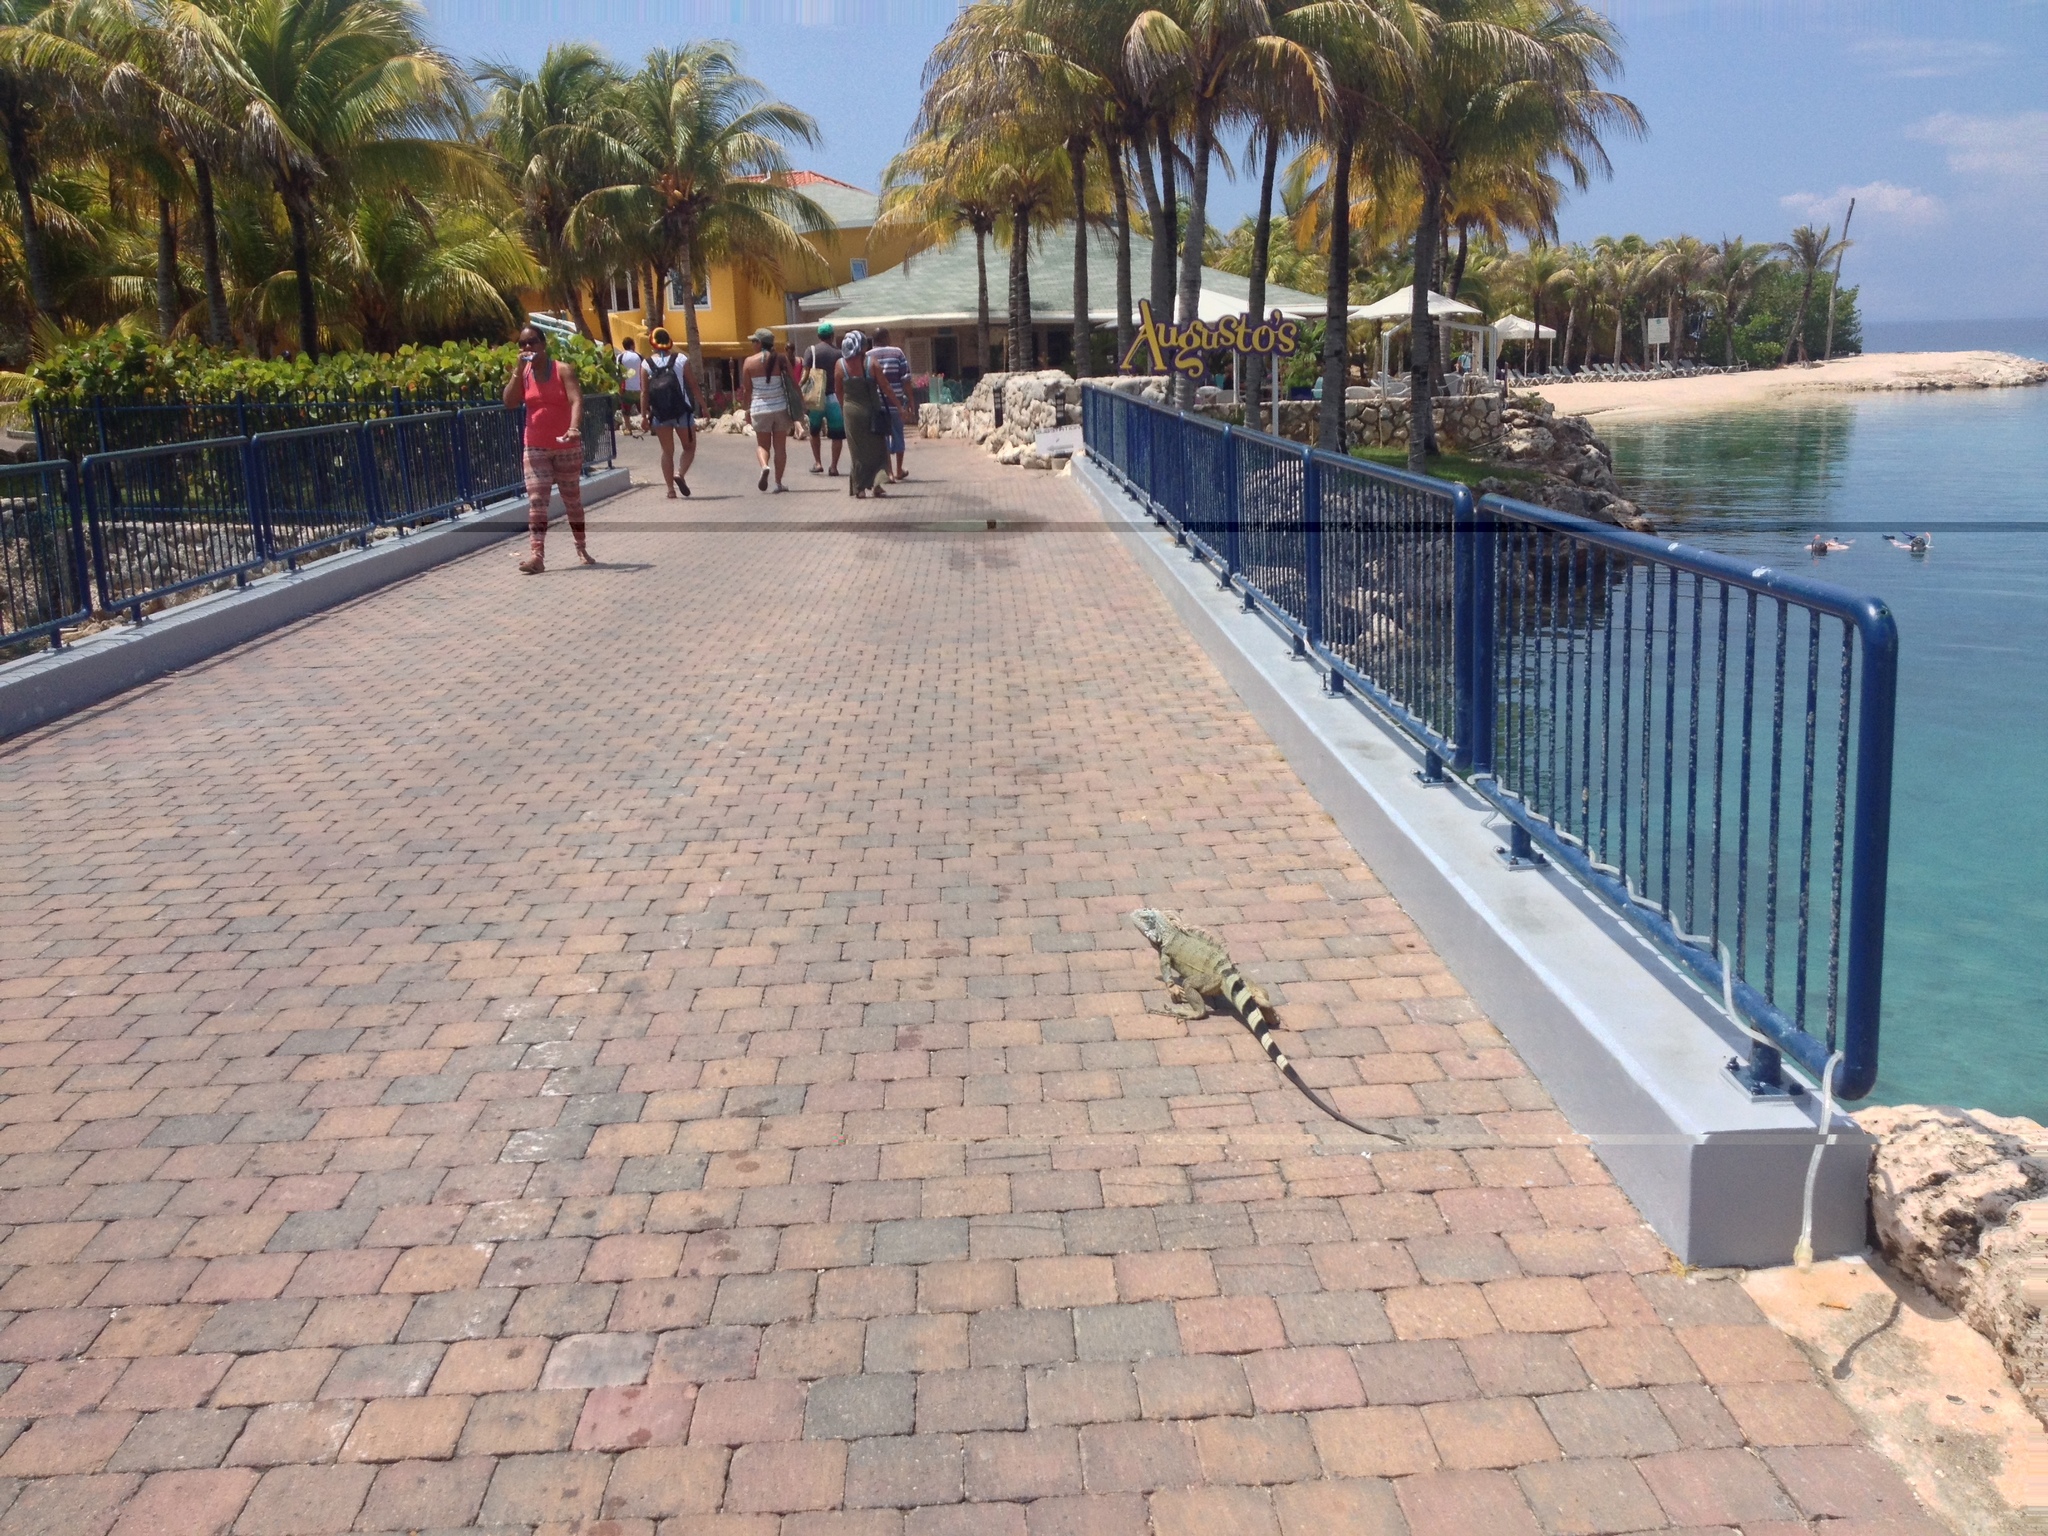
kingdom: Animalia
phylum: Chordata
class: Squamata
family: Iguanidae
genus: Iguana
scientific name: Iguana iguana
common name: Green iguana
